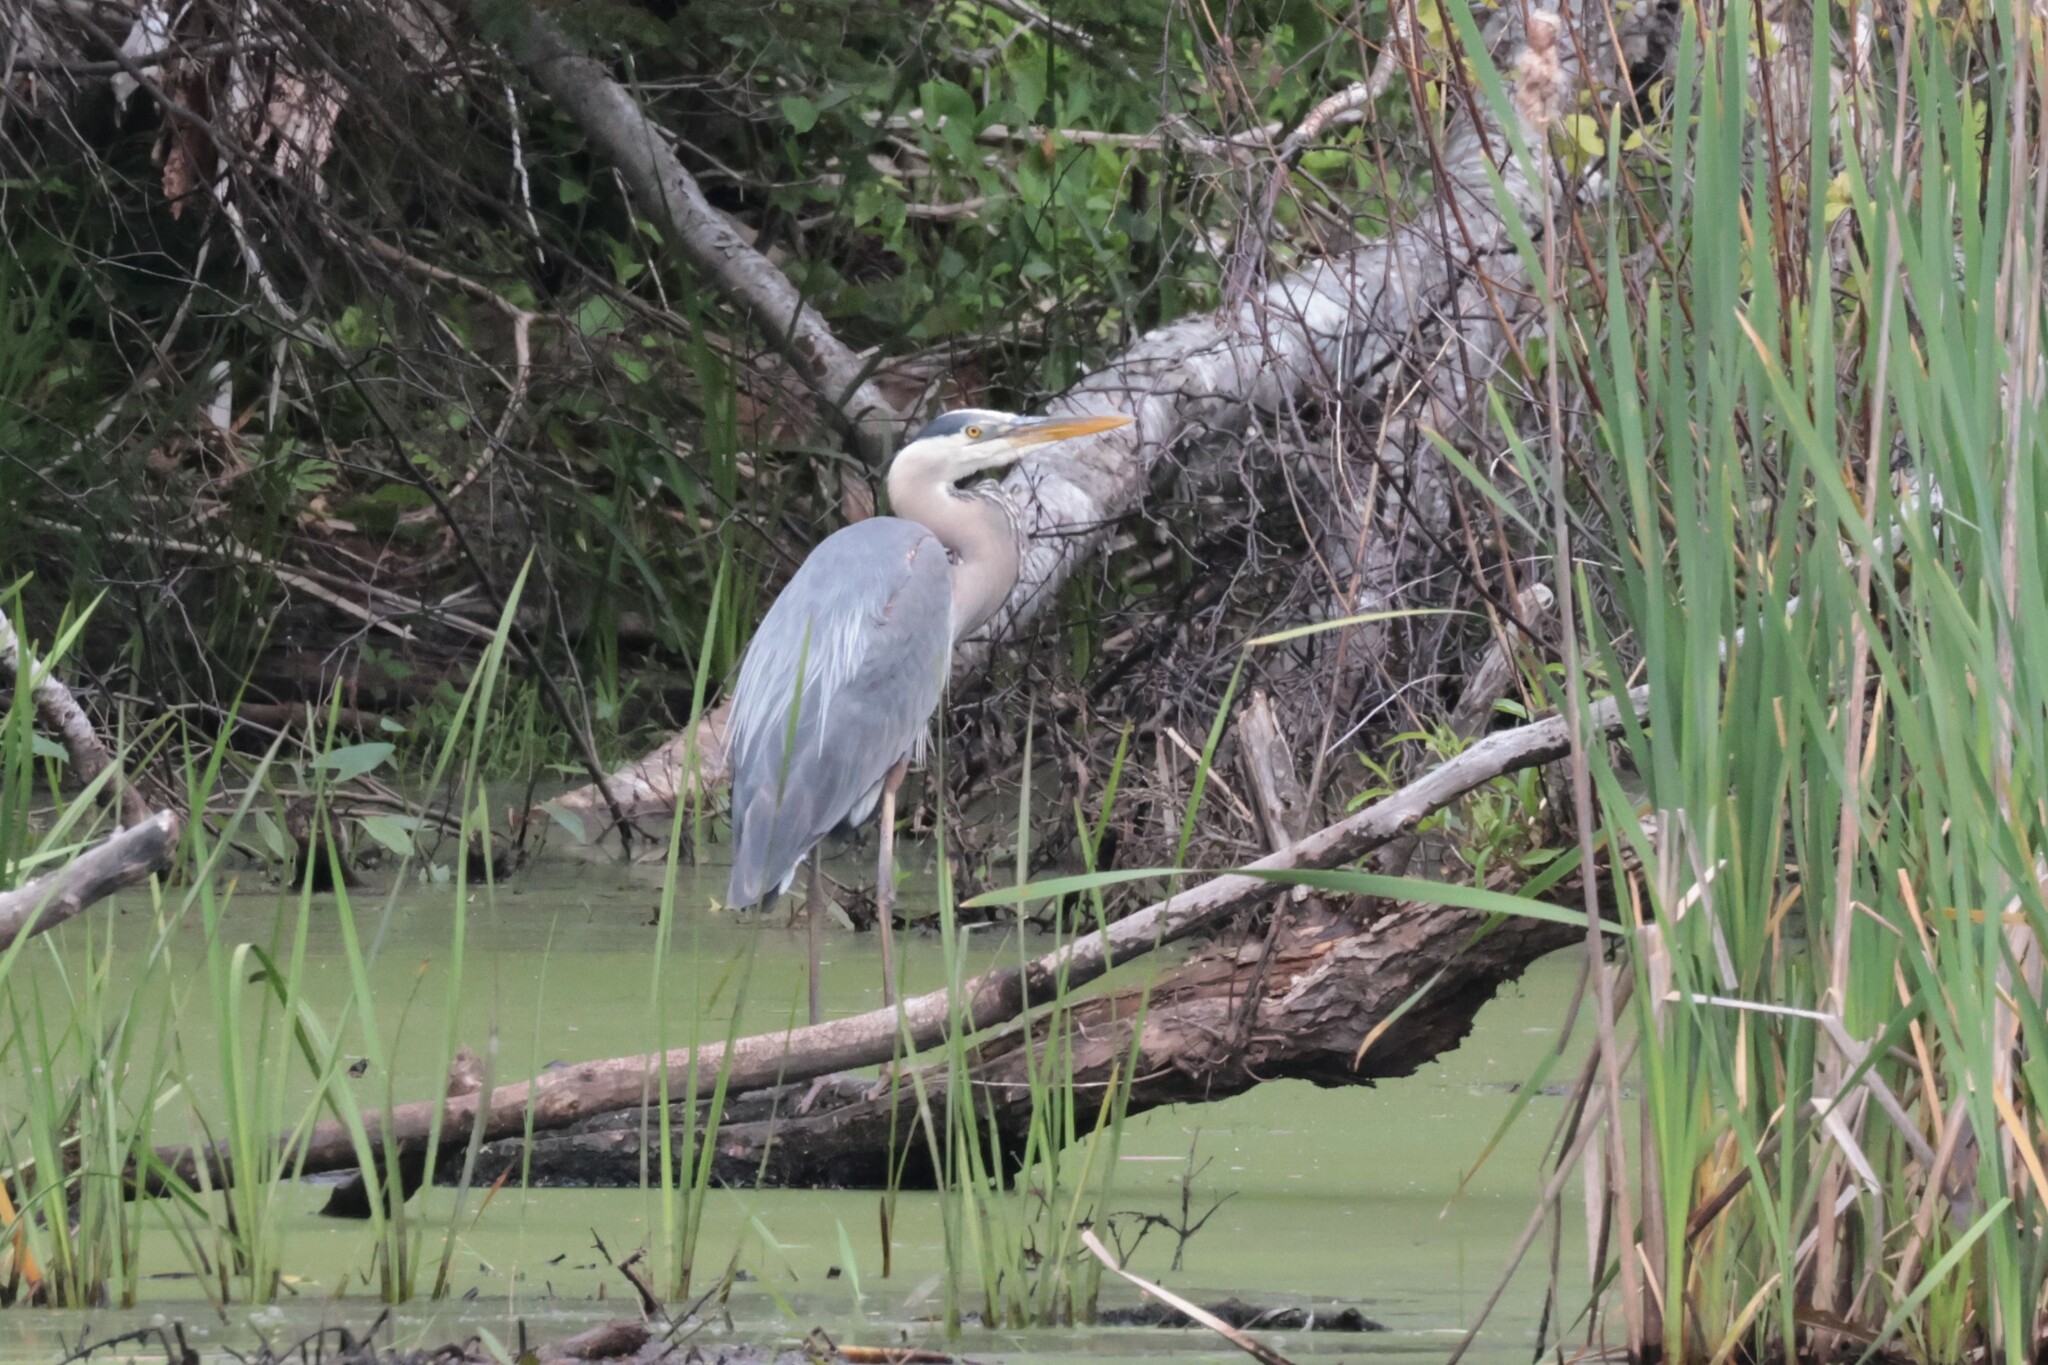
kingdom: Animalia
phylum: Chordata
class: Aves
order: Pelecaniformes
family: Ardeidae
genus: Ardea
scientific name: Ardea herodias
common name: Great blue heron
